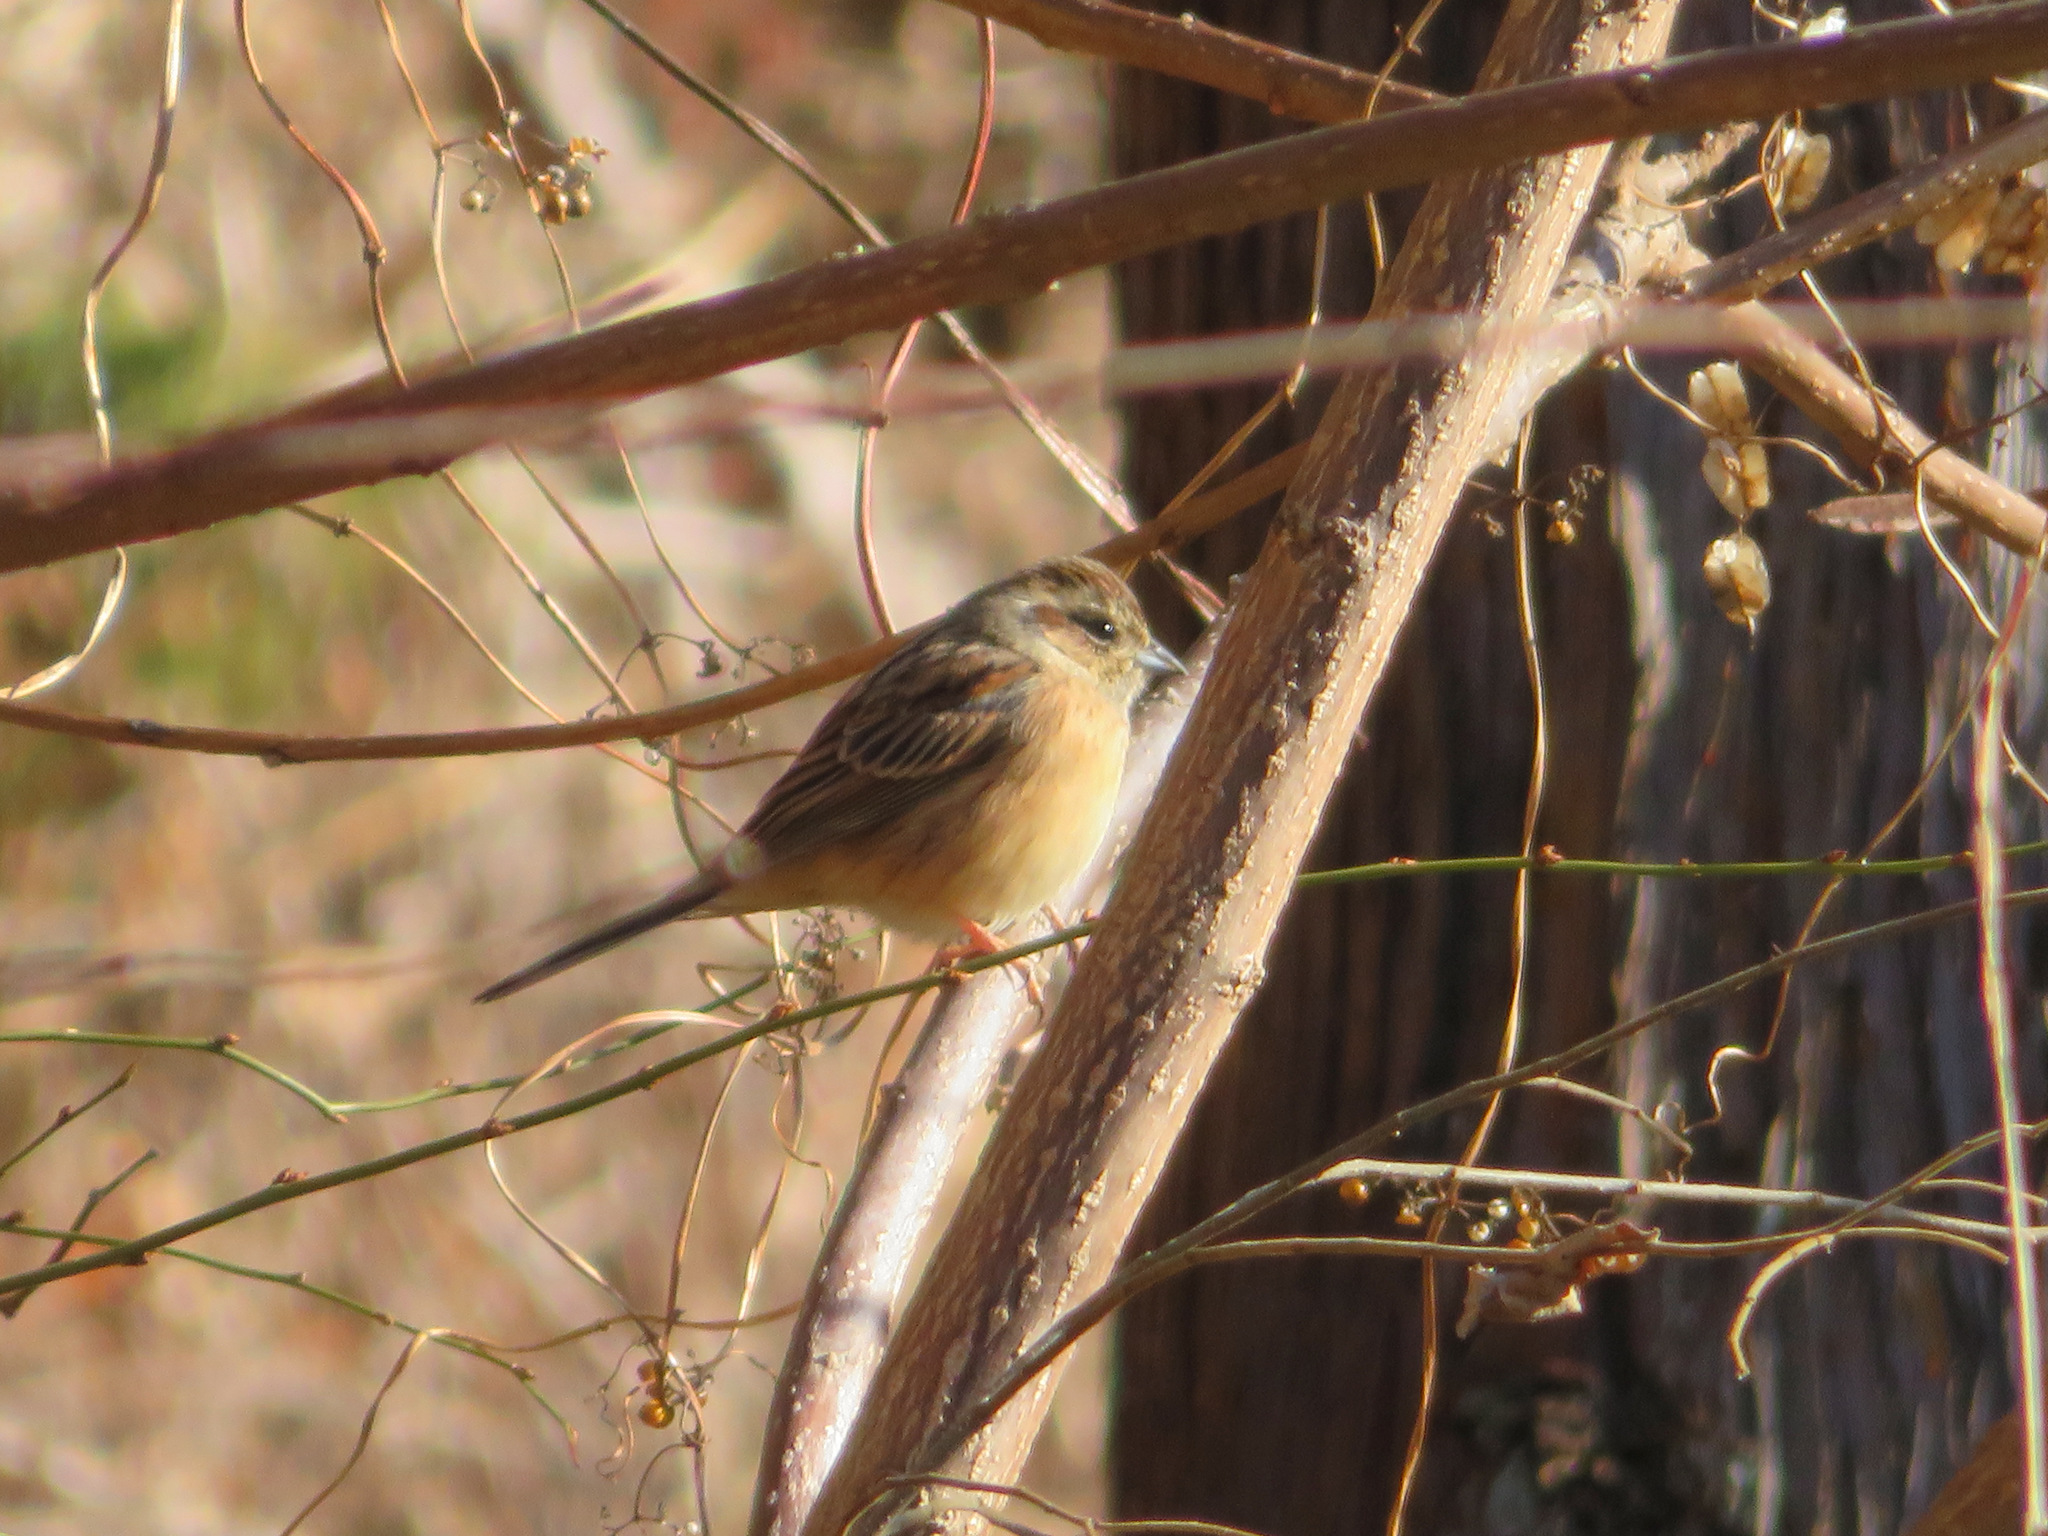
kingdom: Animalia
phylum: Chordata
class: Aves
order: Passeriformes
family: Emberizidae
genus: Emberiza
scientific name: Emberiza cioides
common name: Meadow bunting
